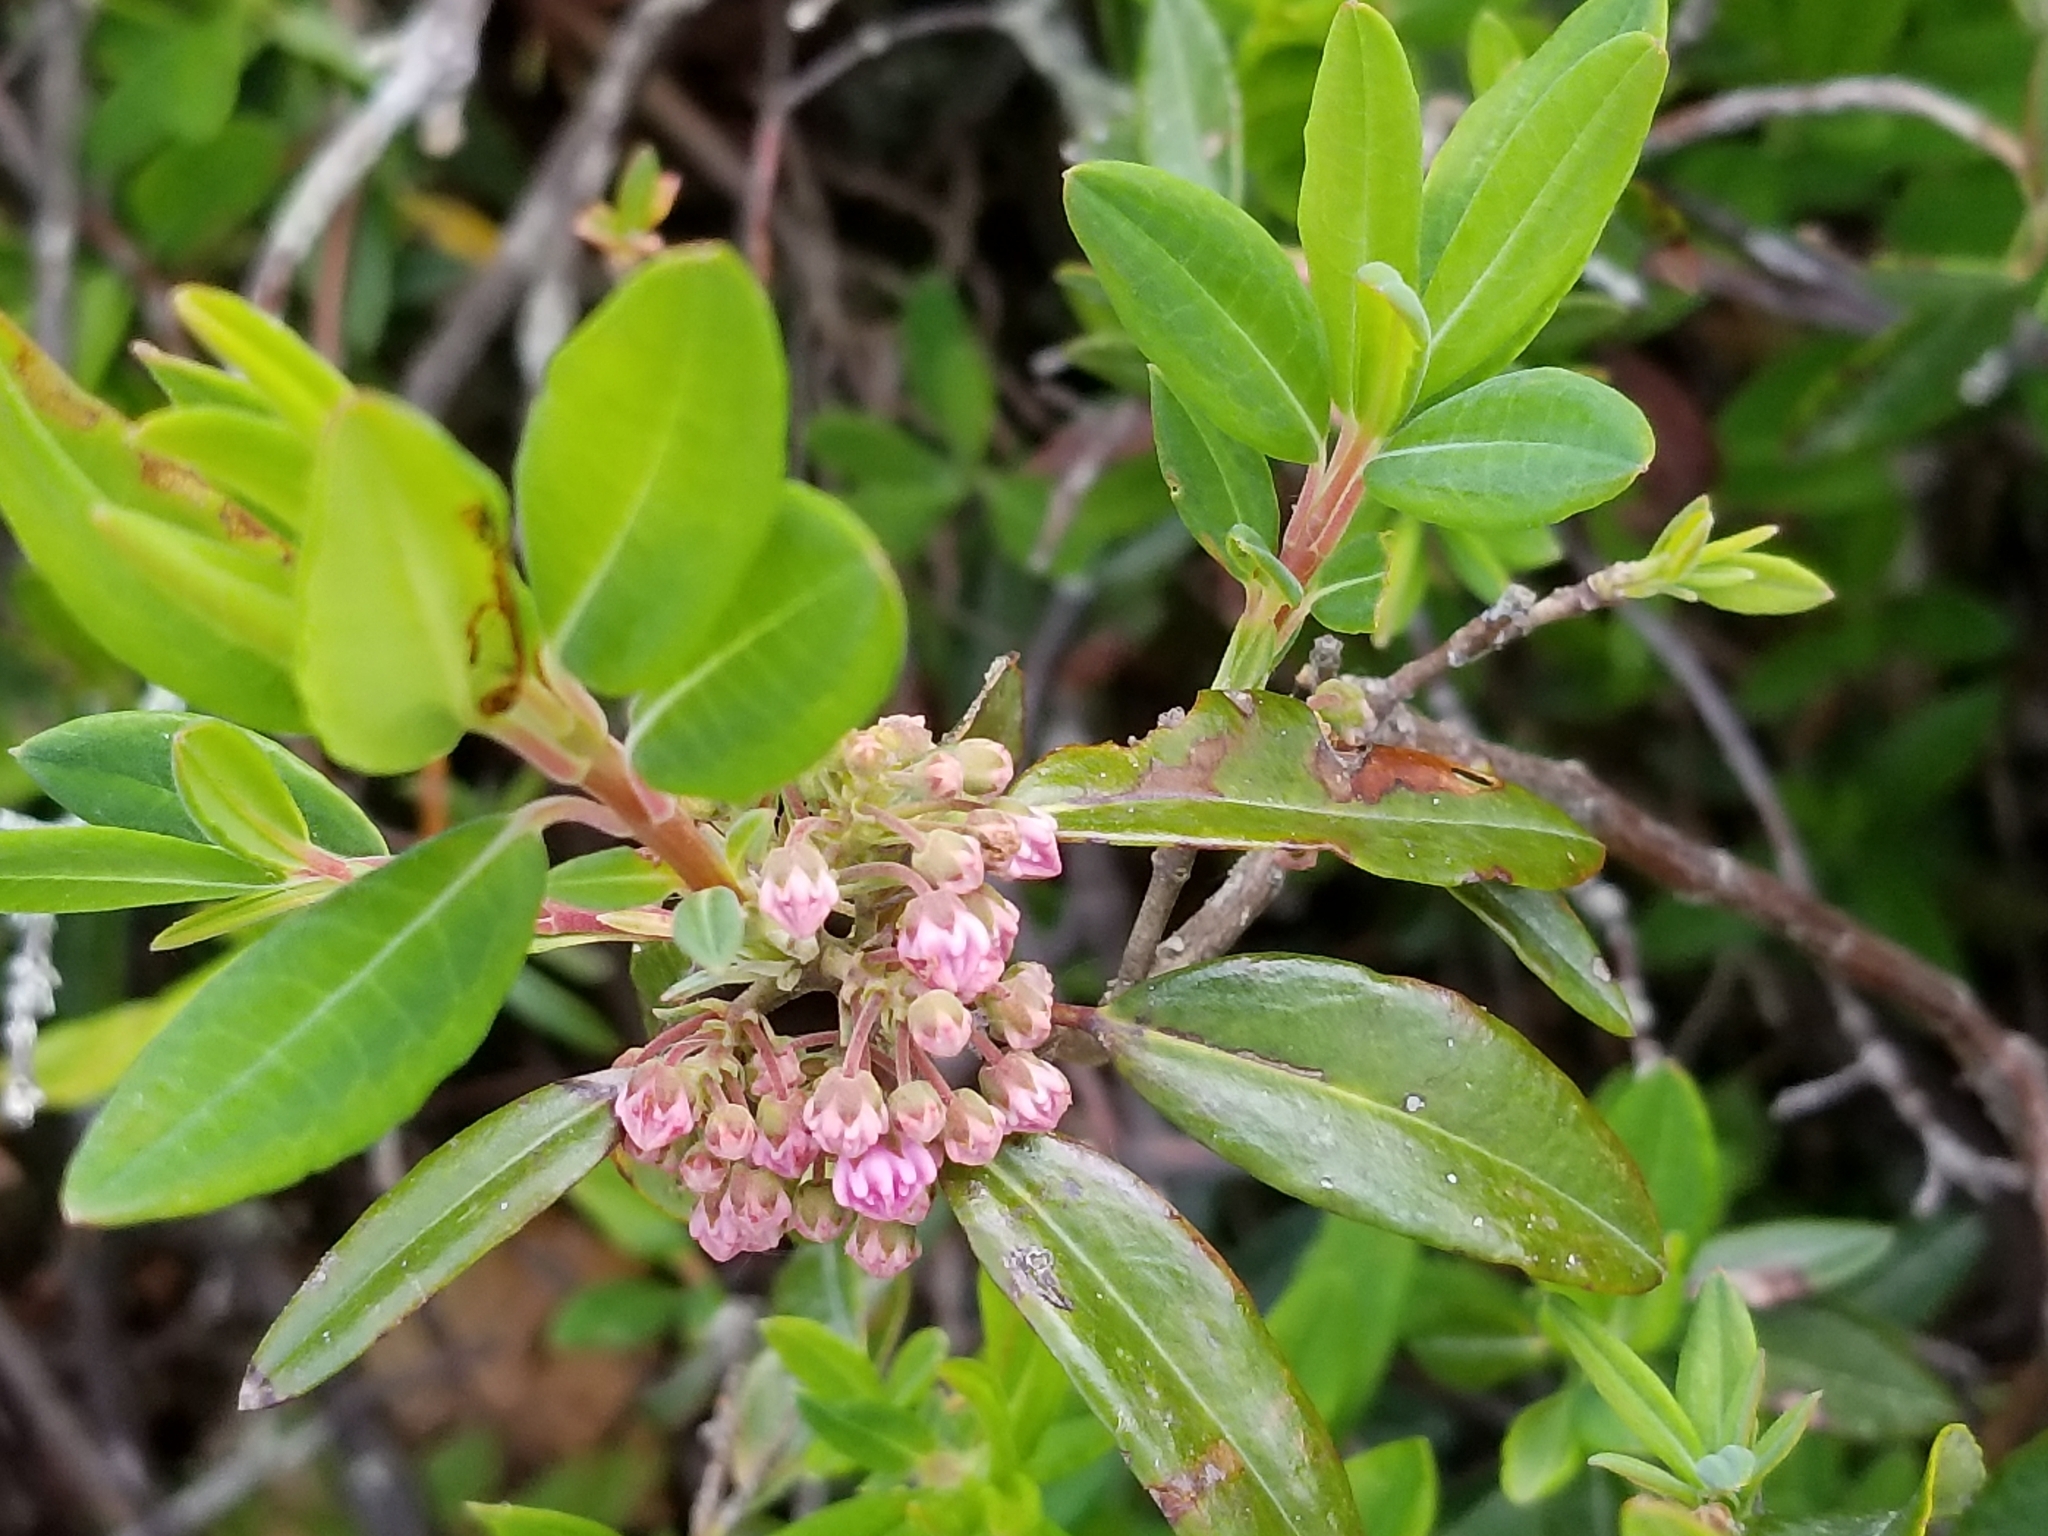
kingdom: Plantae
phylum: Tracheophyta
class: Magnoliopsida
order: Ericales
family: Ericaceae
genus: Kalmia
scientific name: Kalmia angustifolia
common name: Sheep-laurel
